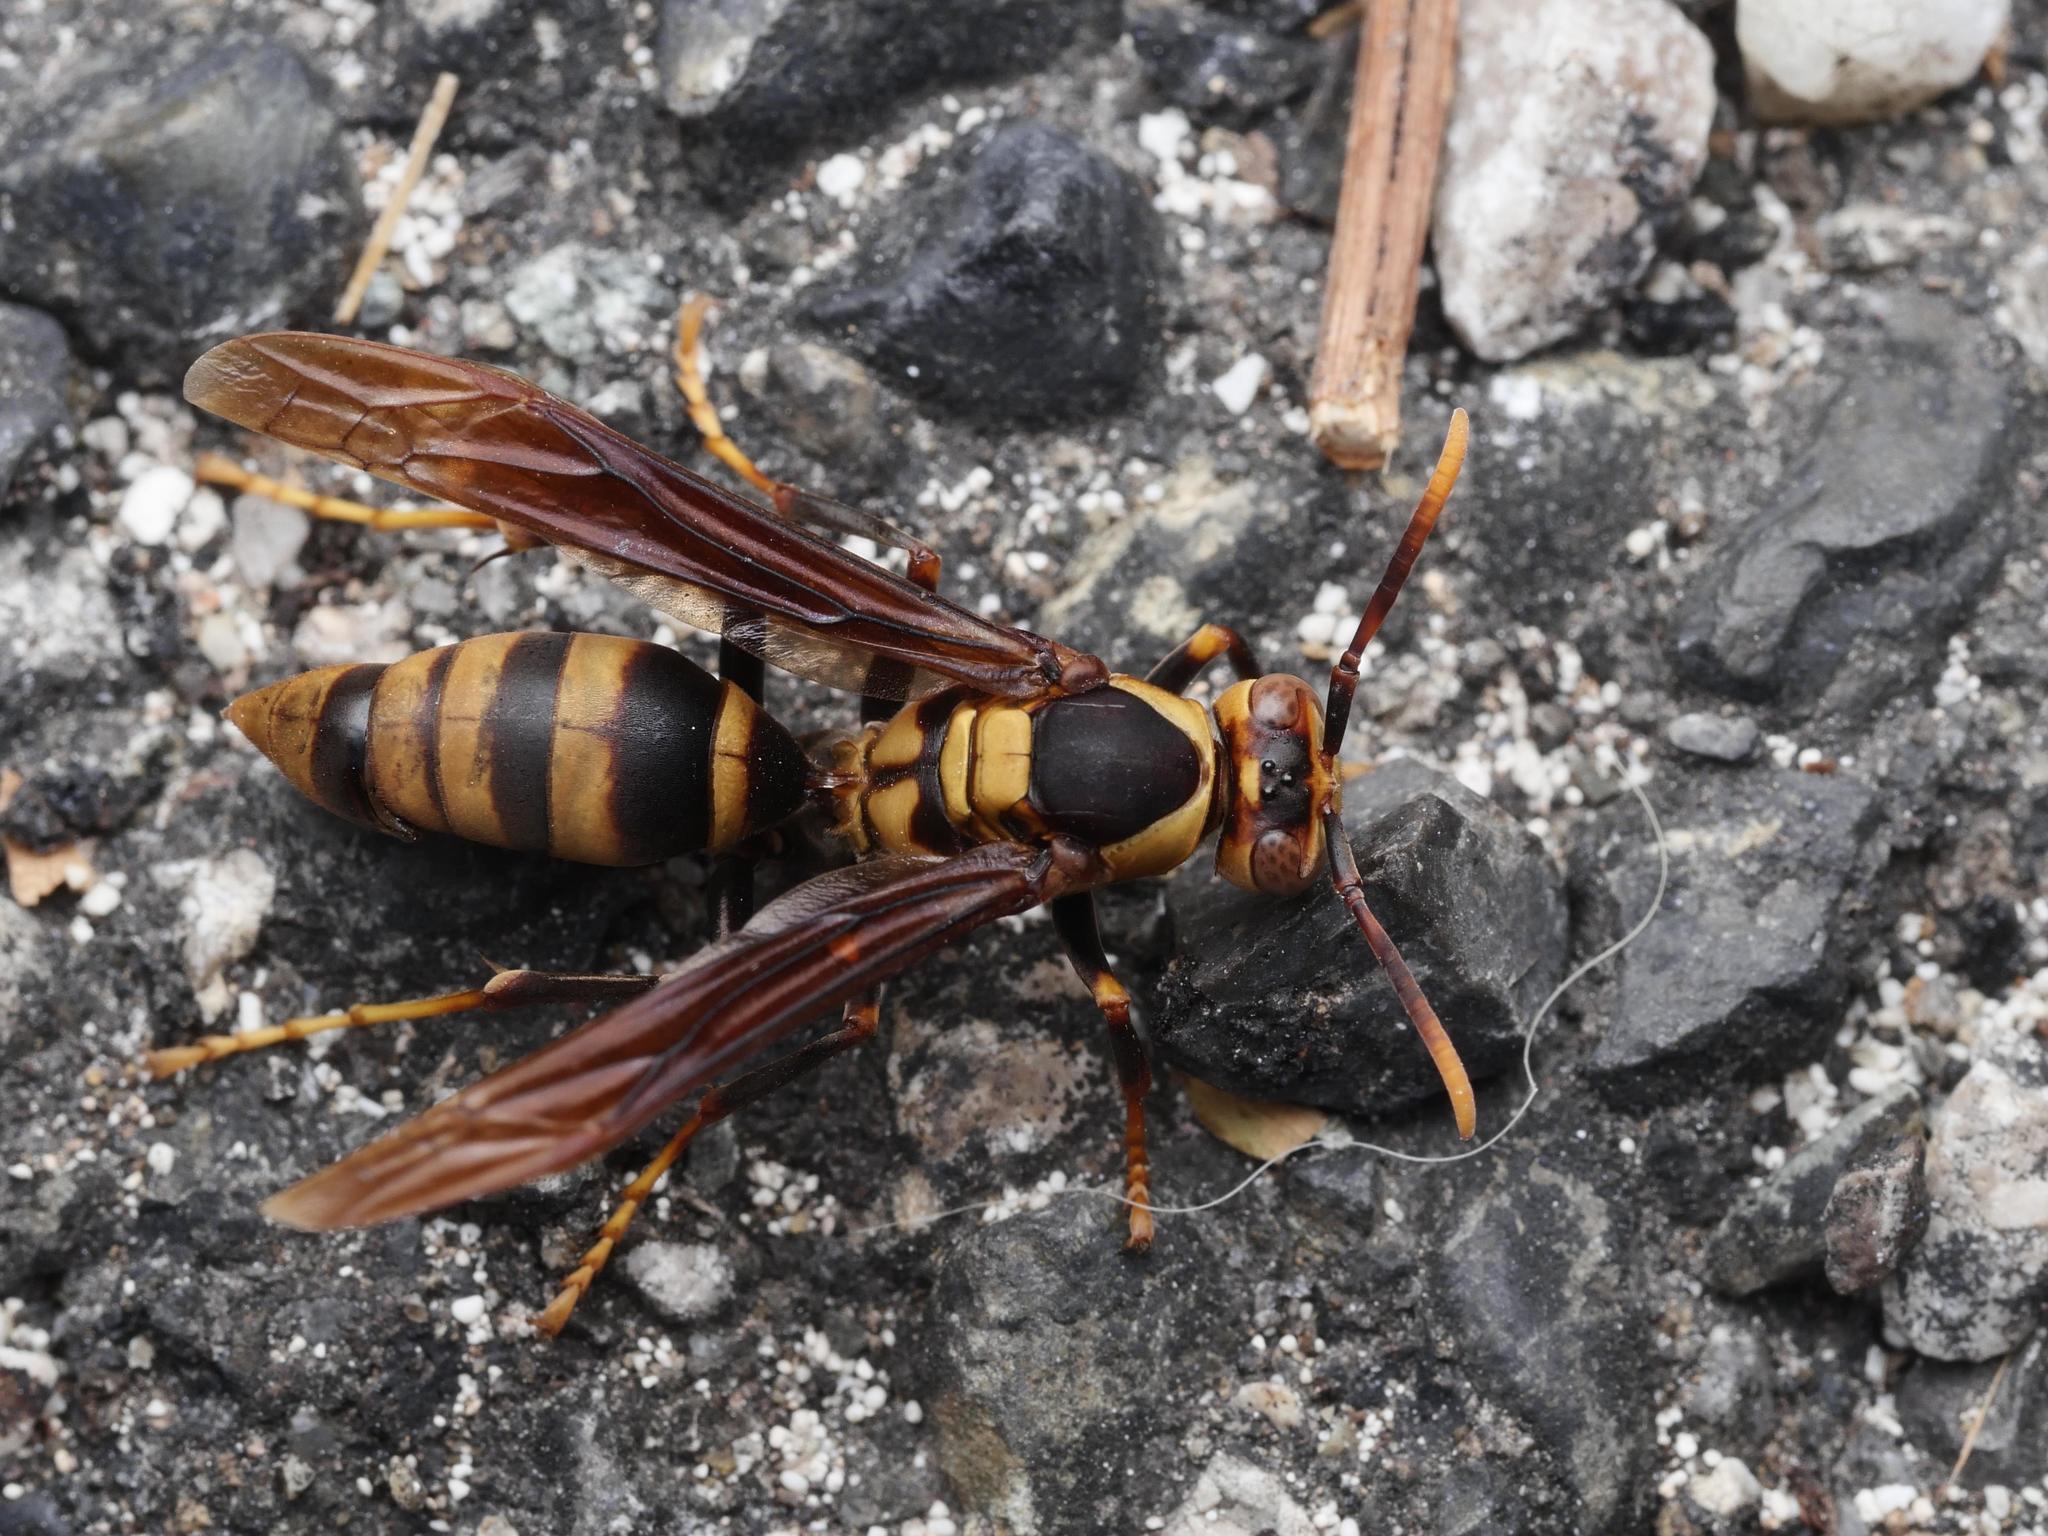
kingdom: Animalia
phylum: Arthropoda
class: Insecta
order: Hymenoptera
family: Eumenidae
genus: Polistes
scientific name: Polistes major
